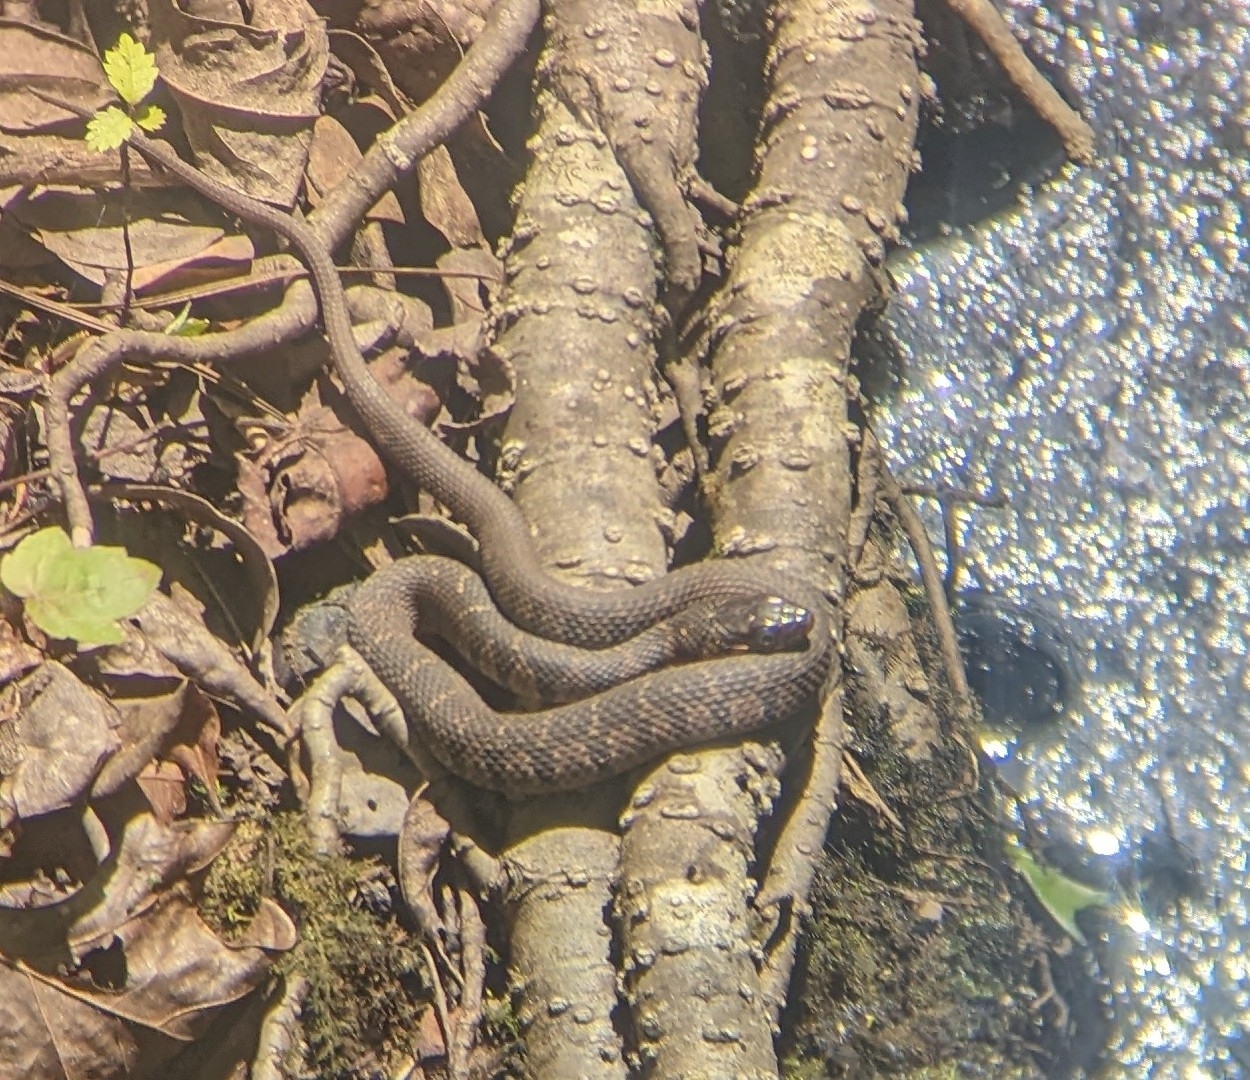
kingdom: Animalia
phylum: Chordata
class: Squamata
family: Colubridae
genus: Nerodia
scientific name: Nerodia erythrogaster
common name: Plainbelly water snake
